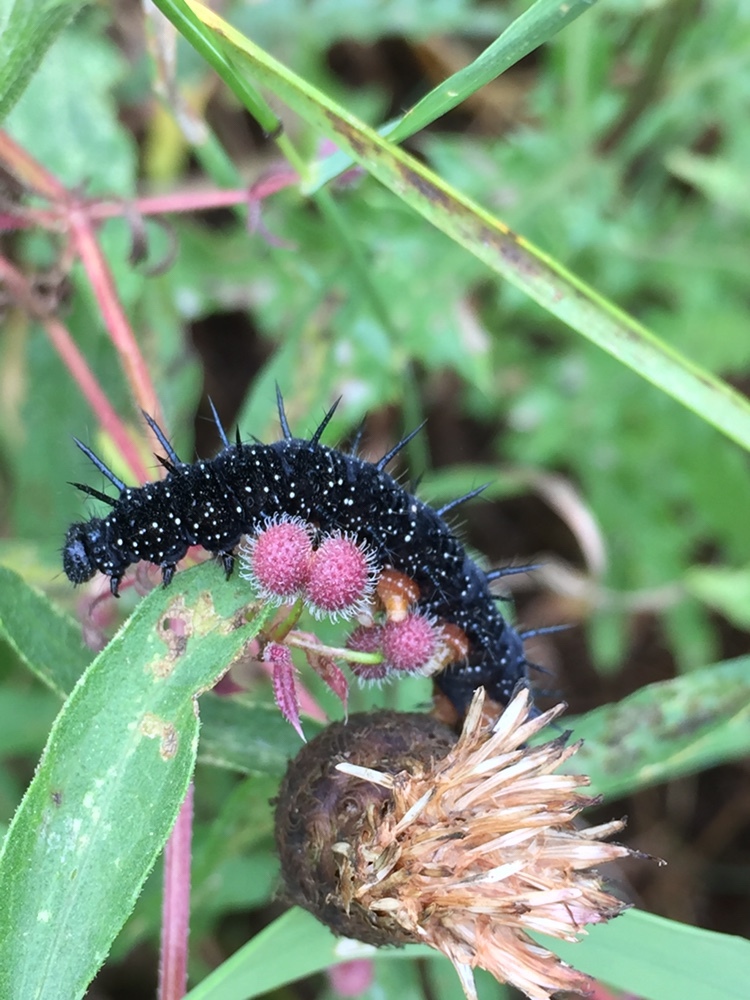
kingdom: Animalia
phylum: Arthropoda
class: Insecta
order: Lepidoptera
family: Nymphalidae
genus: Aglais
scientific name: Aglais io
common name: Peacock
